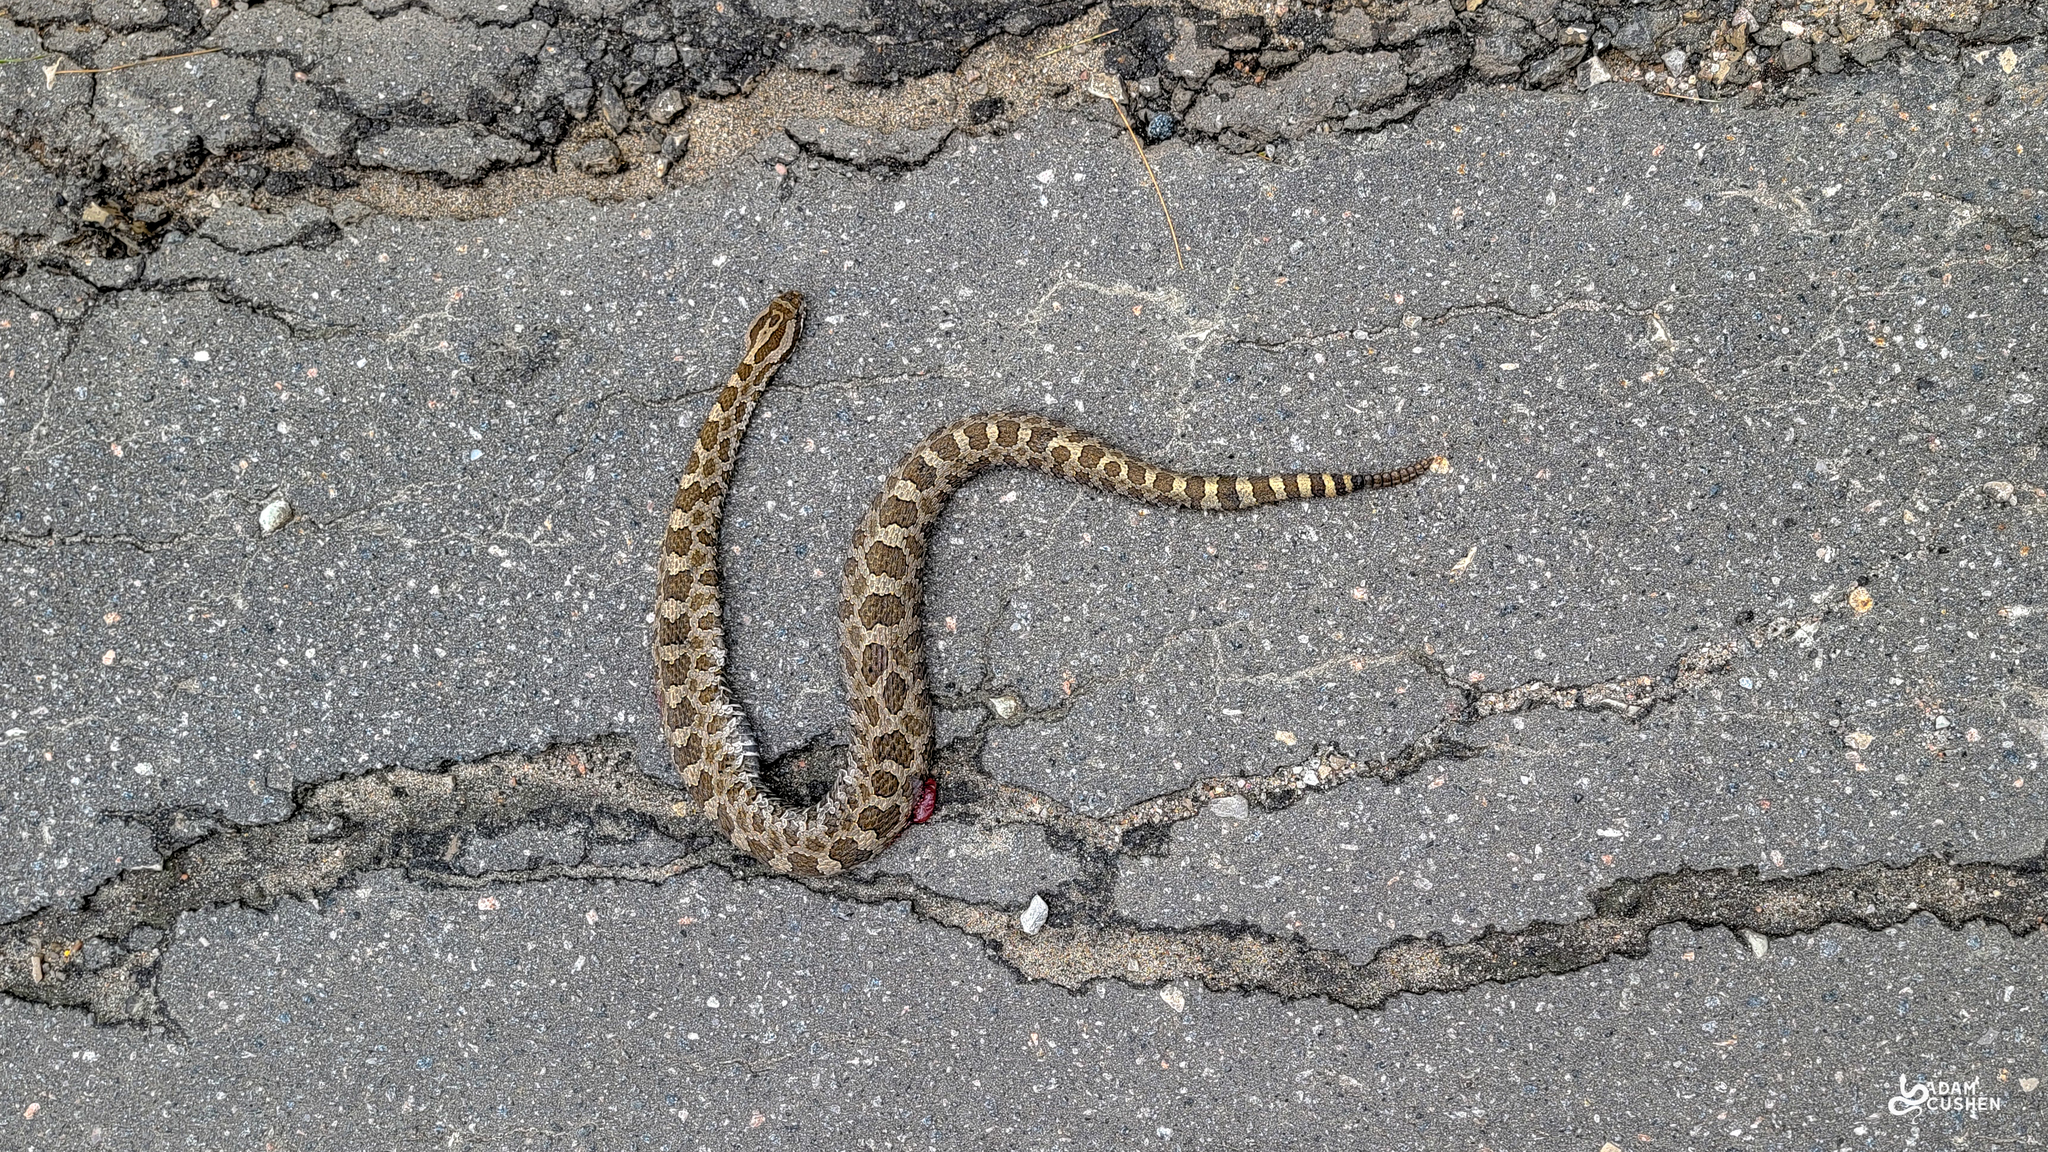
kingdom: Animalia
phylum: Chordata
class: Squamata
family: Viperidae
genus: Sistrurus
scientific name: Sistrurus catenatus
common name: Massasauga
